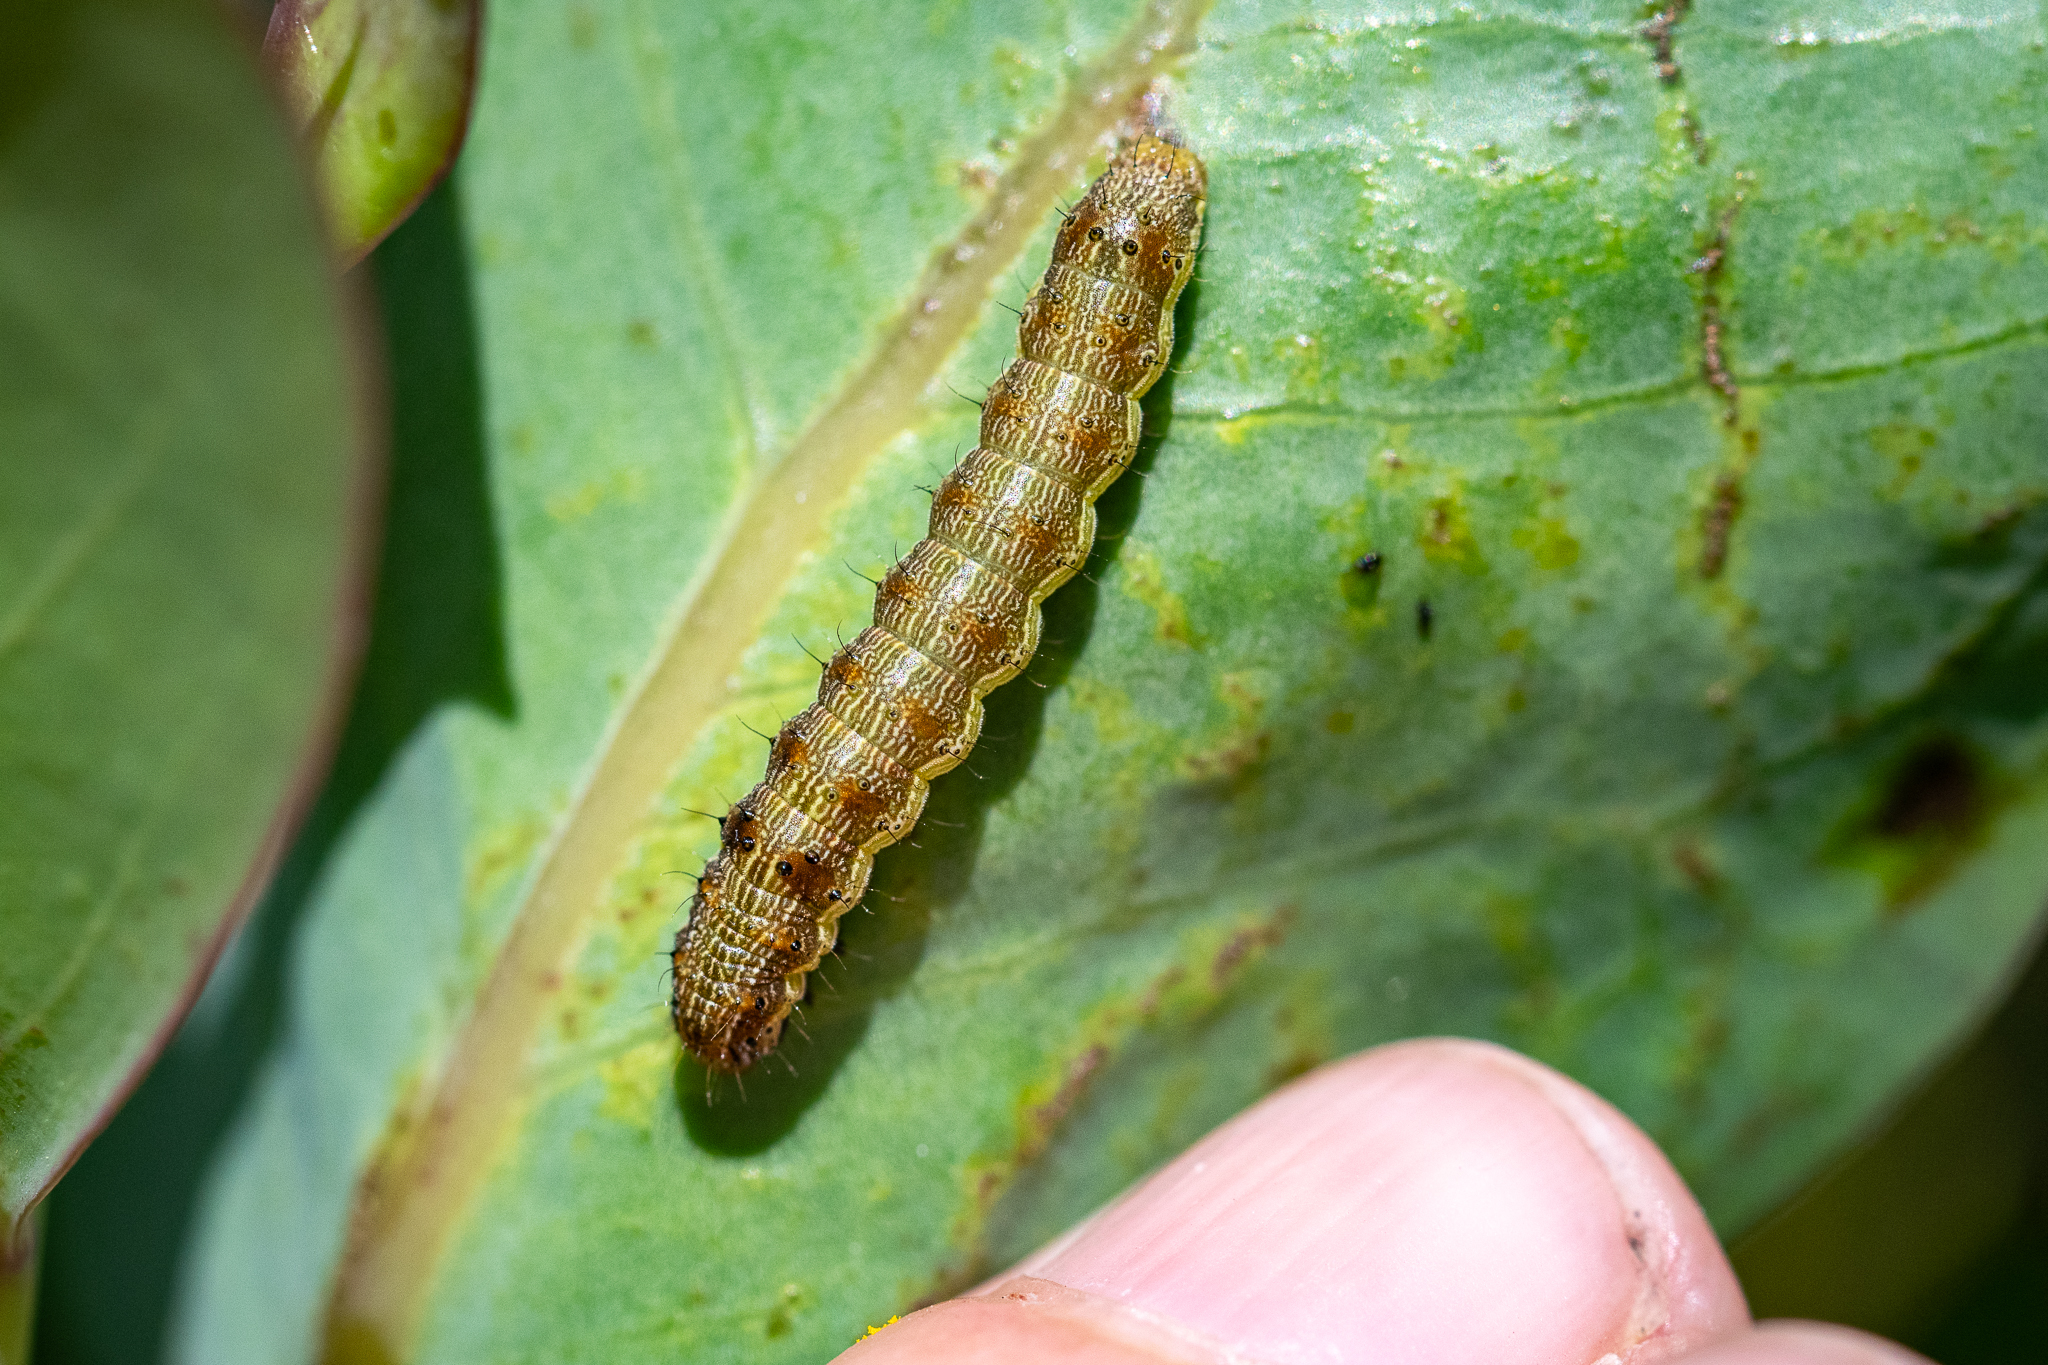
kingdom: Animalia
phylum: Arthropoda
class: Insecta
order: Lepidoptera
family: Noctuidae
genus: Helicoverpa
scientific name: Helicoverpa armigera
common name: Cotton bollworm
